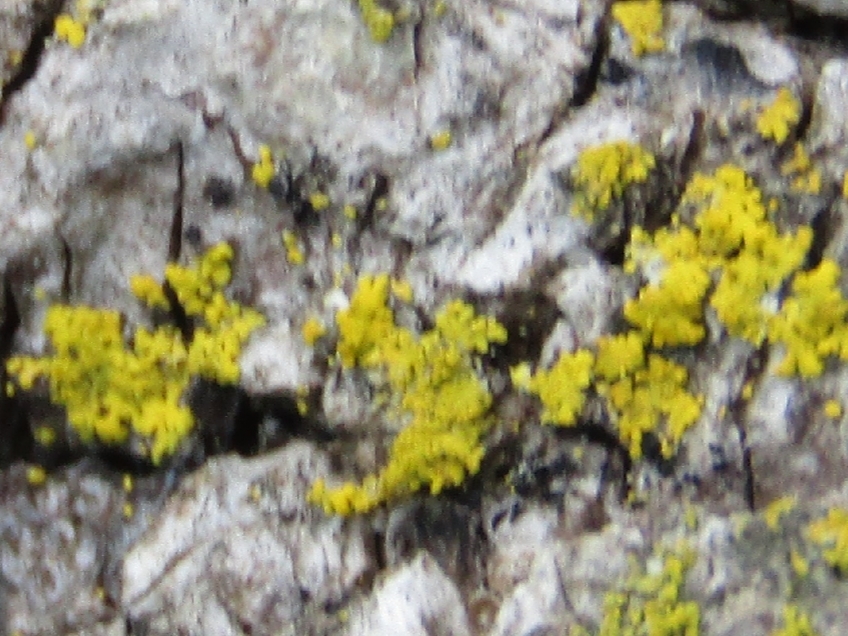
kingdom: Fungi
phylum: Ascomycota
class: Candelariomycetes
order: Candelariales
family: Candelariaceae
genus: Candelaria
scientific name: Candelaria concolor
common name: Candleflame lichen
